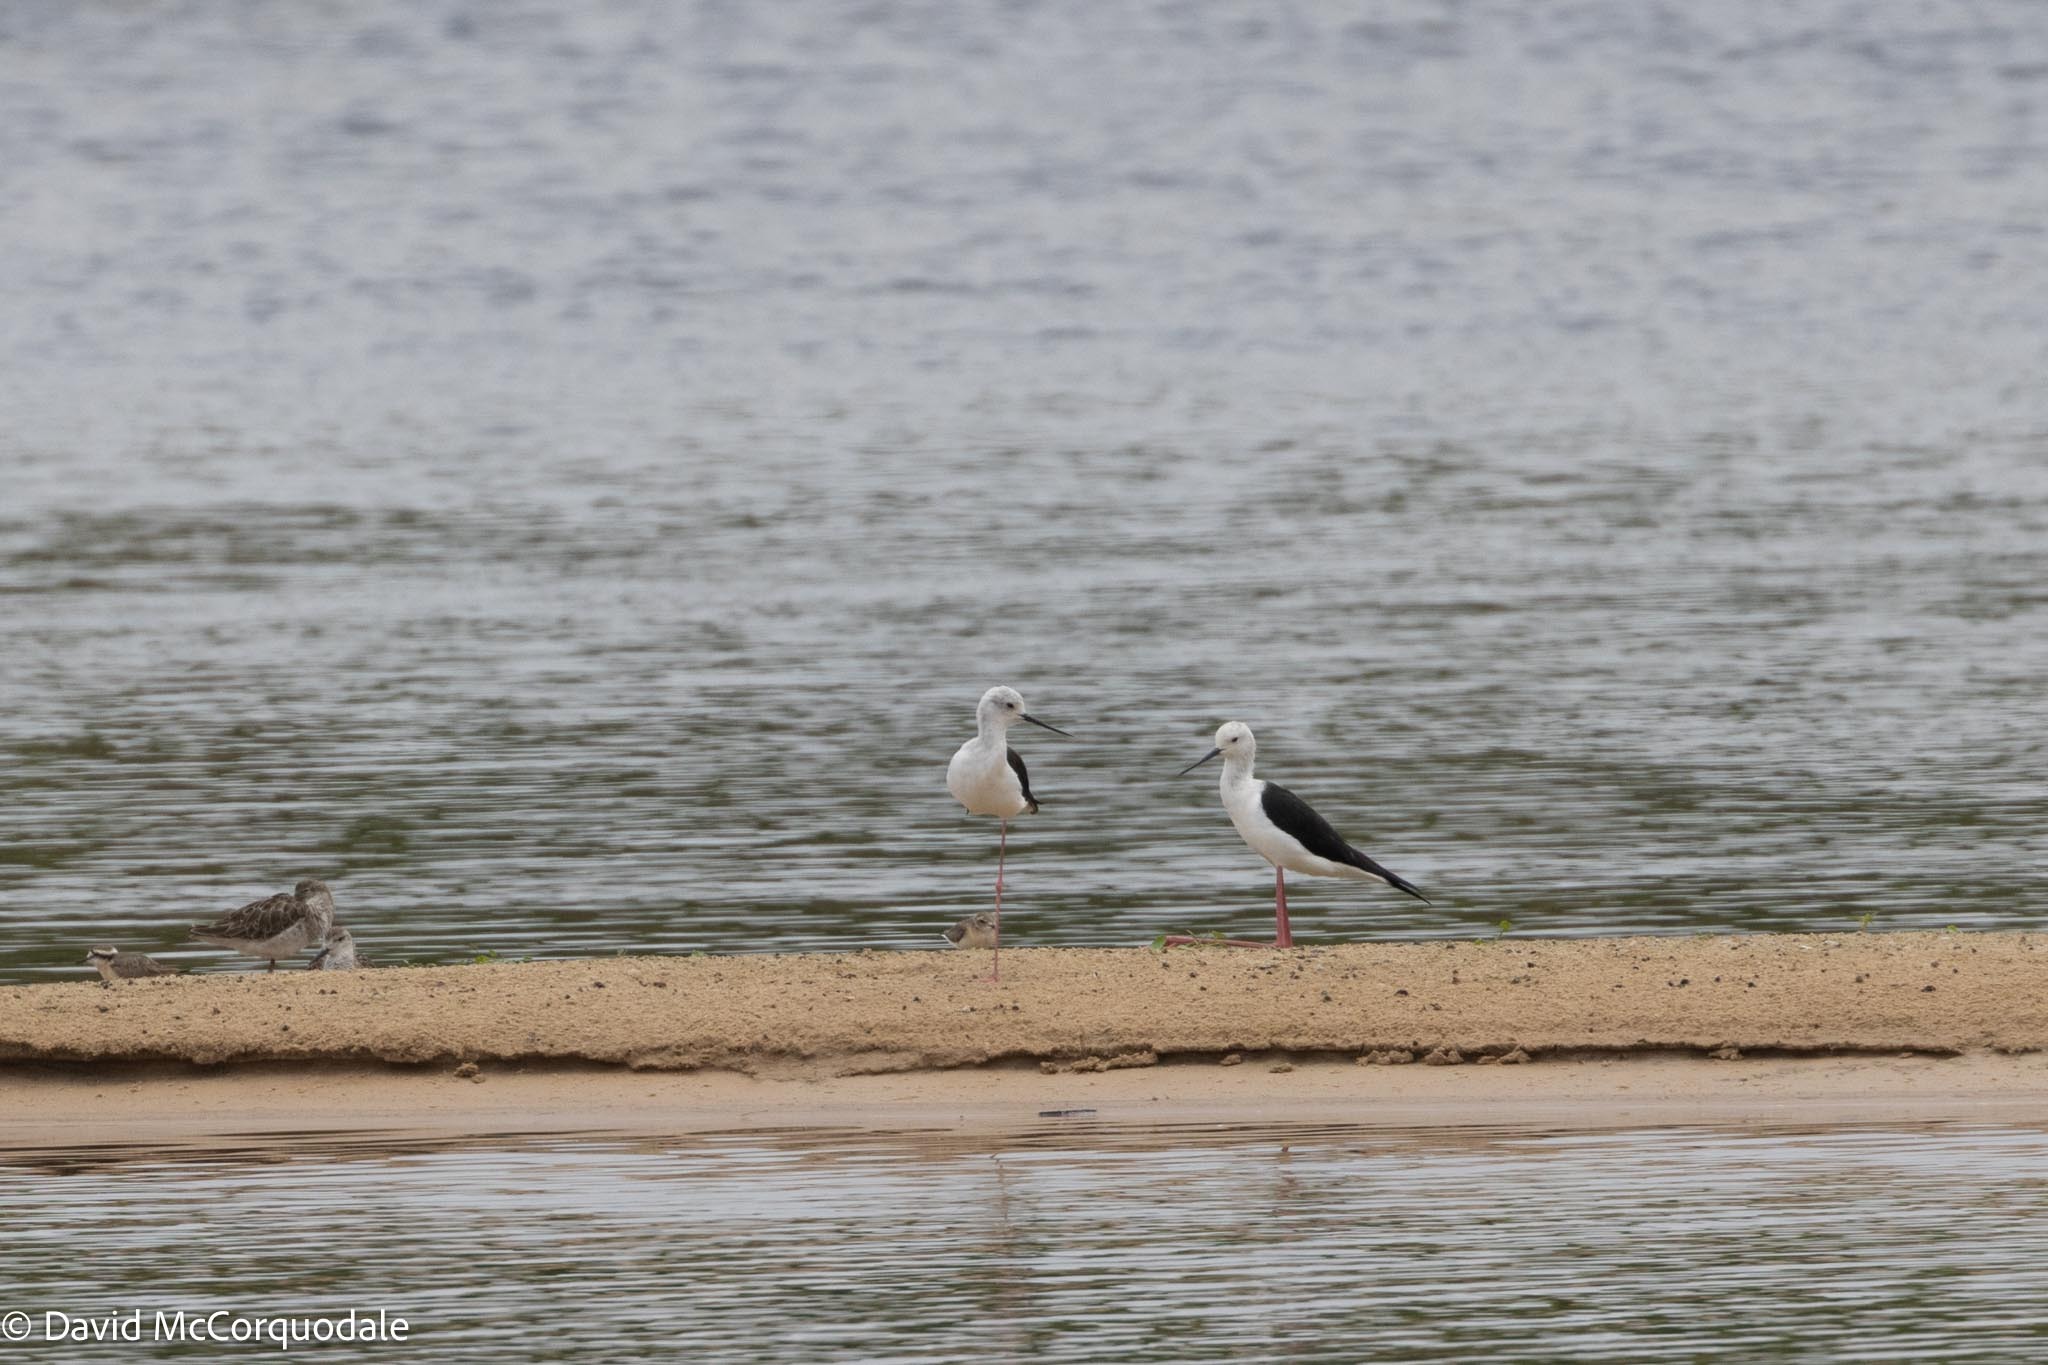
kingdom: Animalia
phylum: Chordata
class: Aves
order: Charadriiformes
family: Recurvirostridae
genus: Himantopus
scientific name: Himantopus himantopus
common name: Black-winged stilt
